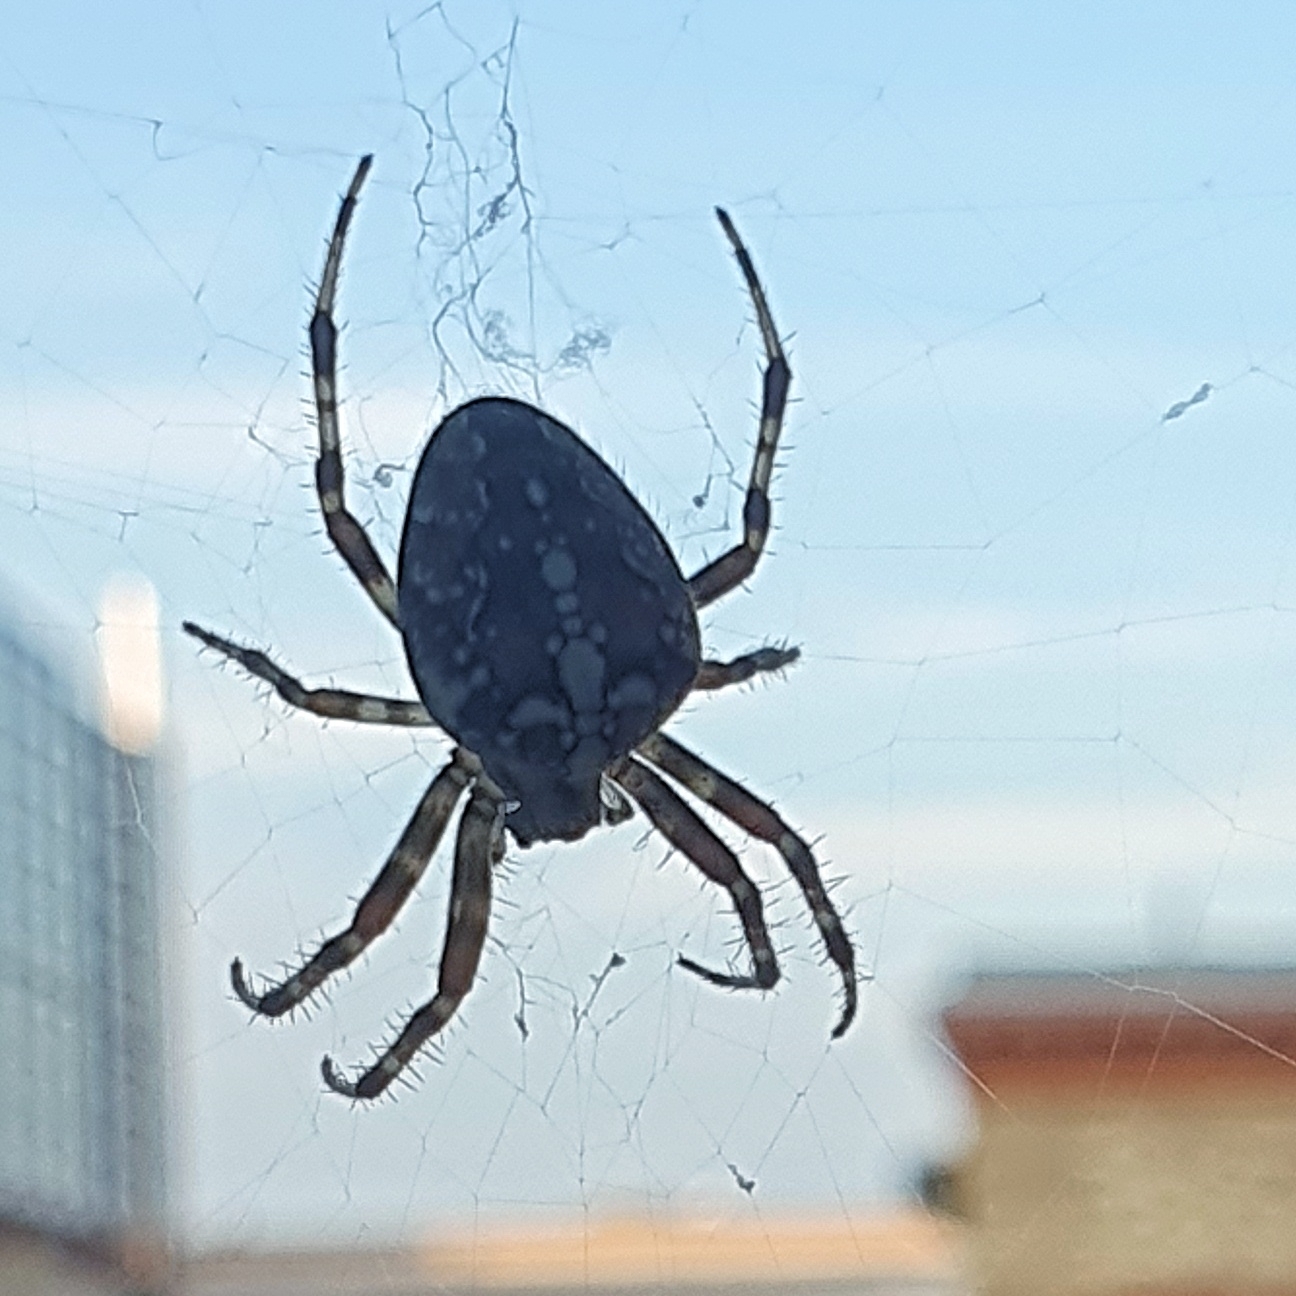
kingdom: Animalia
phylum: Arthropoda
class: Arachnida
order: Araneae
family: Araneidae
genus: Araneus
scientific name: Araneus diadematus
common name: Cross orbweaver
